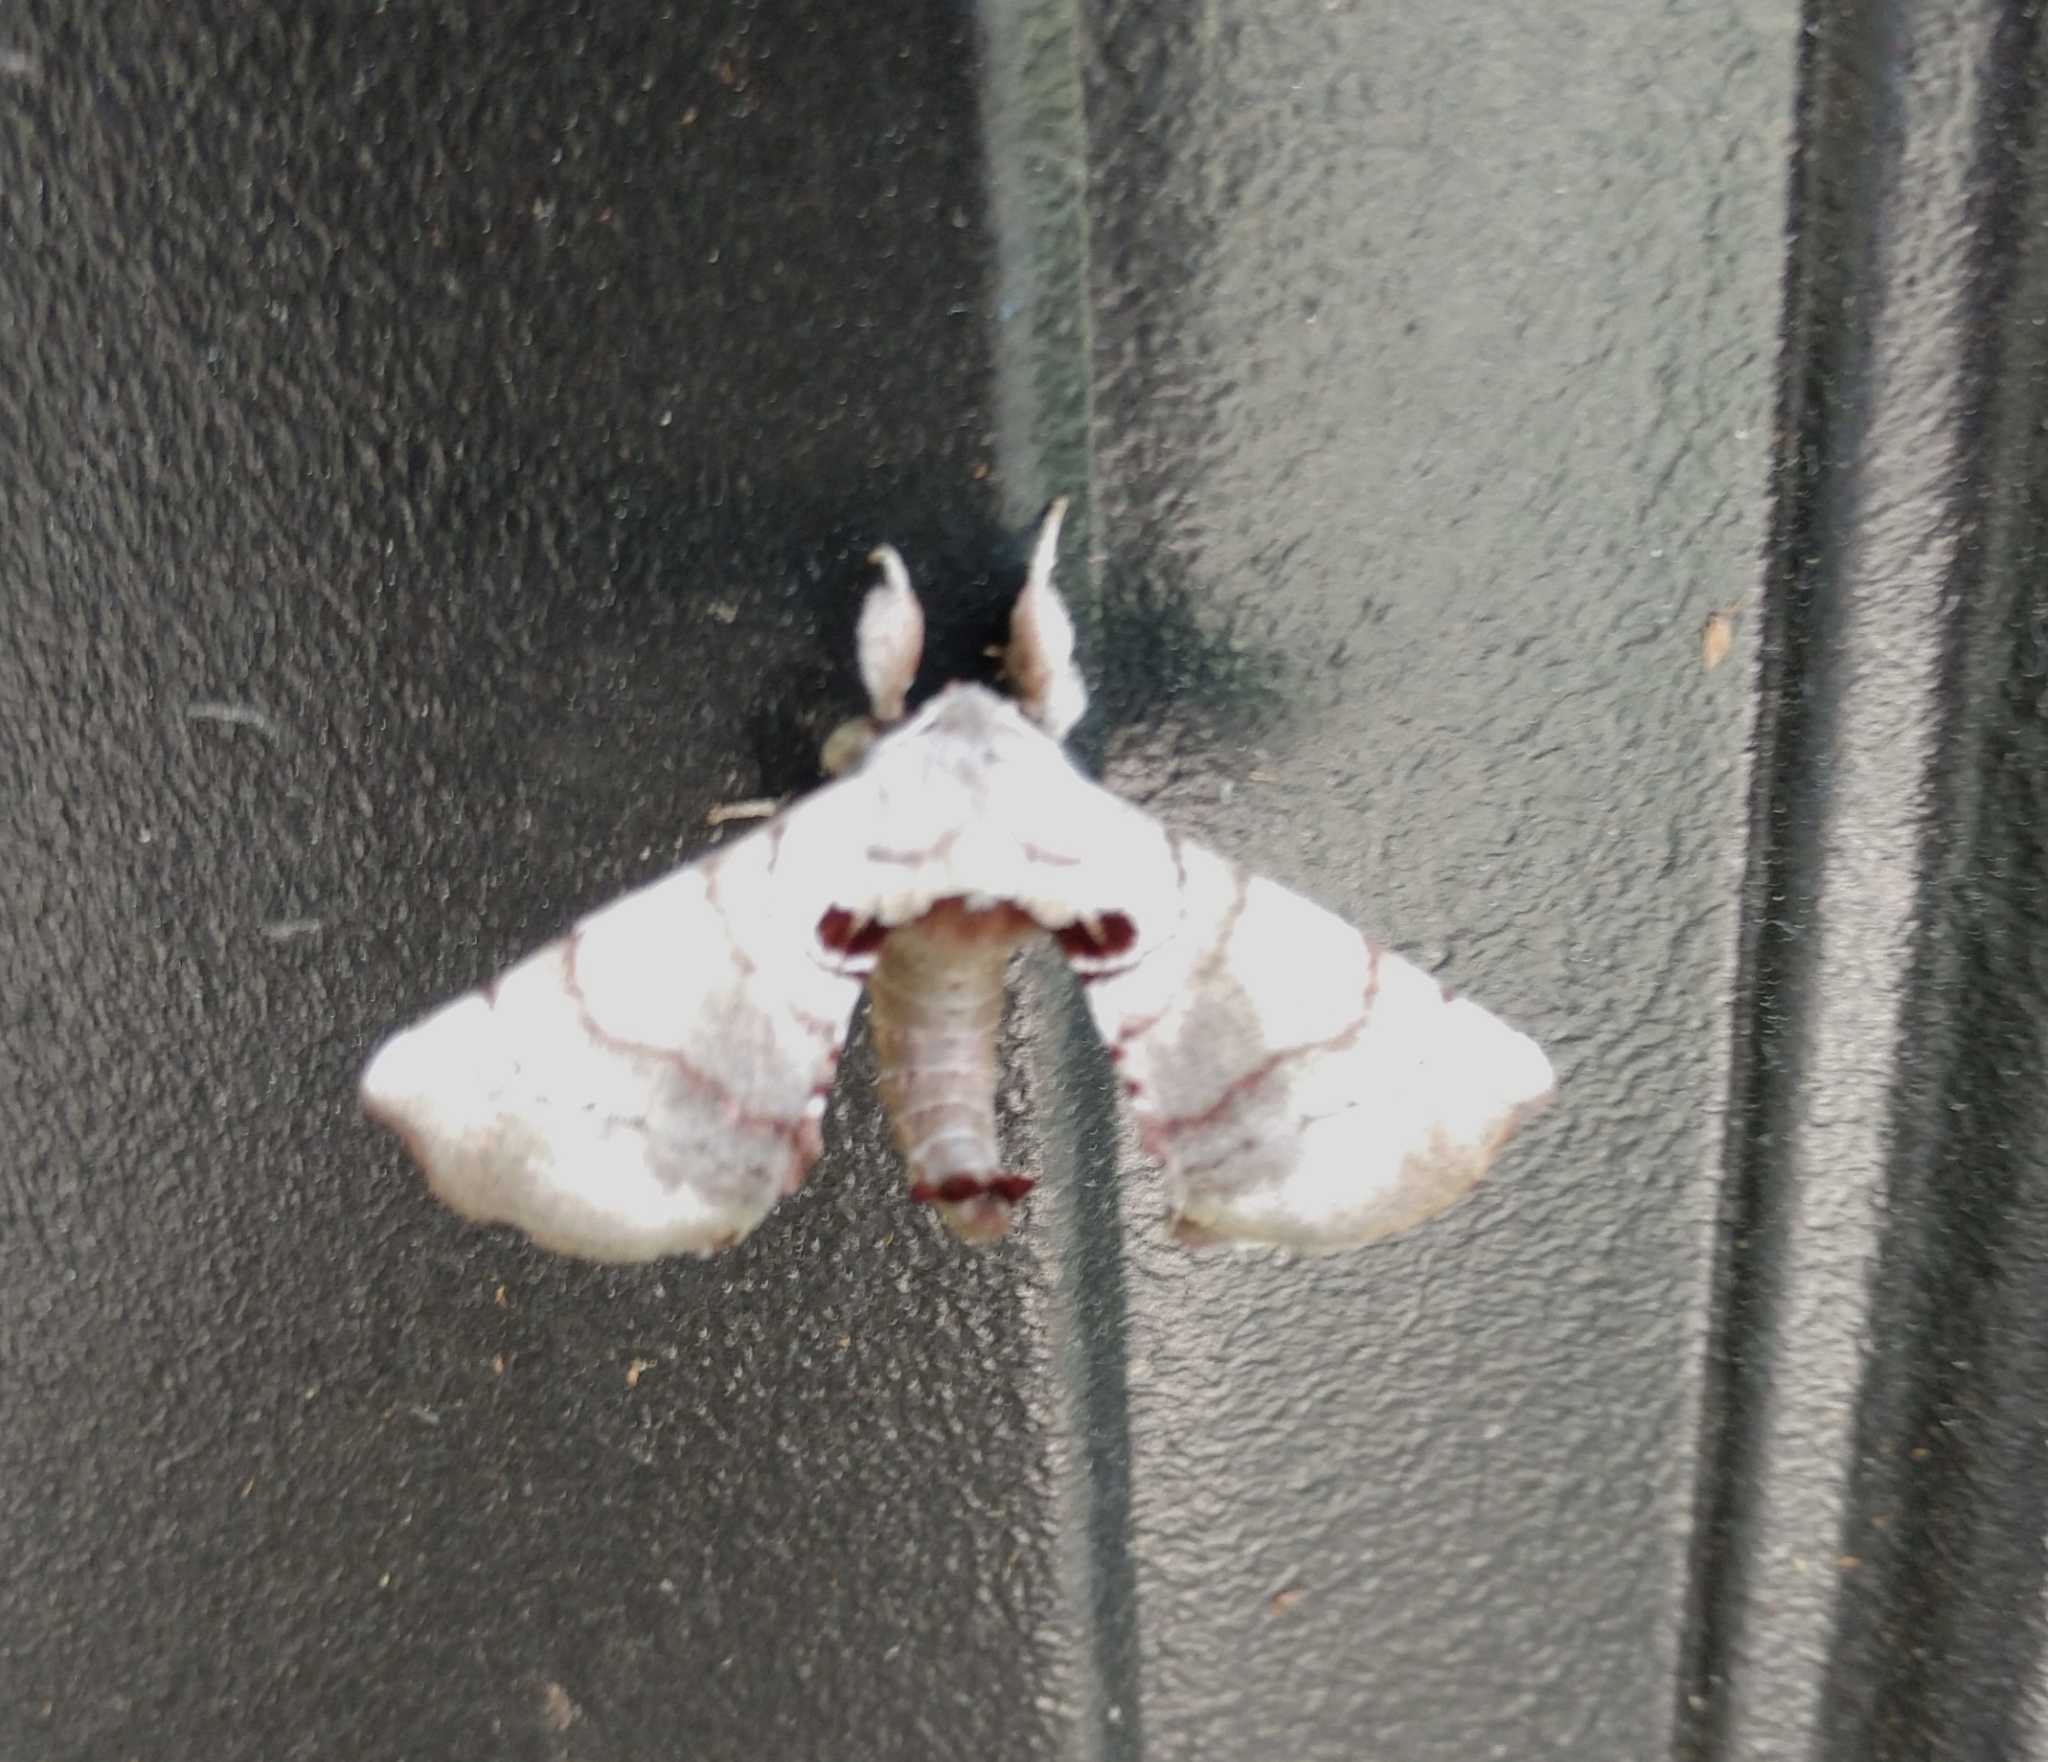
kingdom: Animalia
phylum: Arthropoda
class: Insecta
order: Lepidoptera
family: Apatelodidae
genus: Hygrochroa
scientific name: Hygrochroa Apatelodes torrefacta
